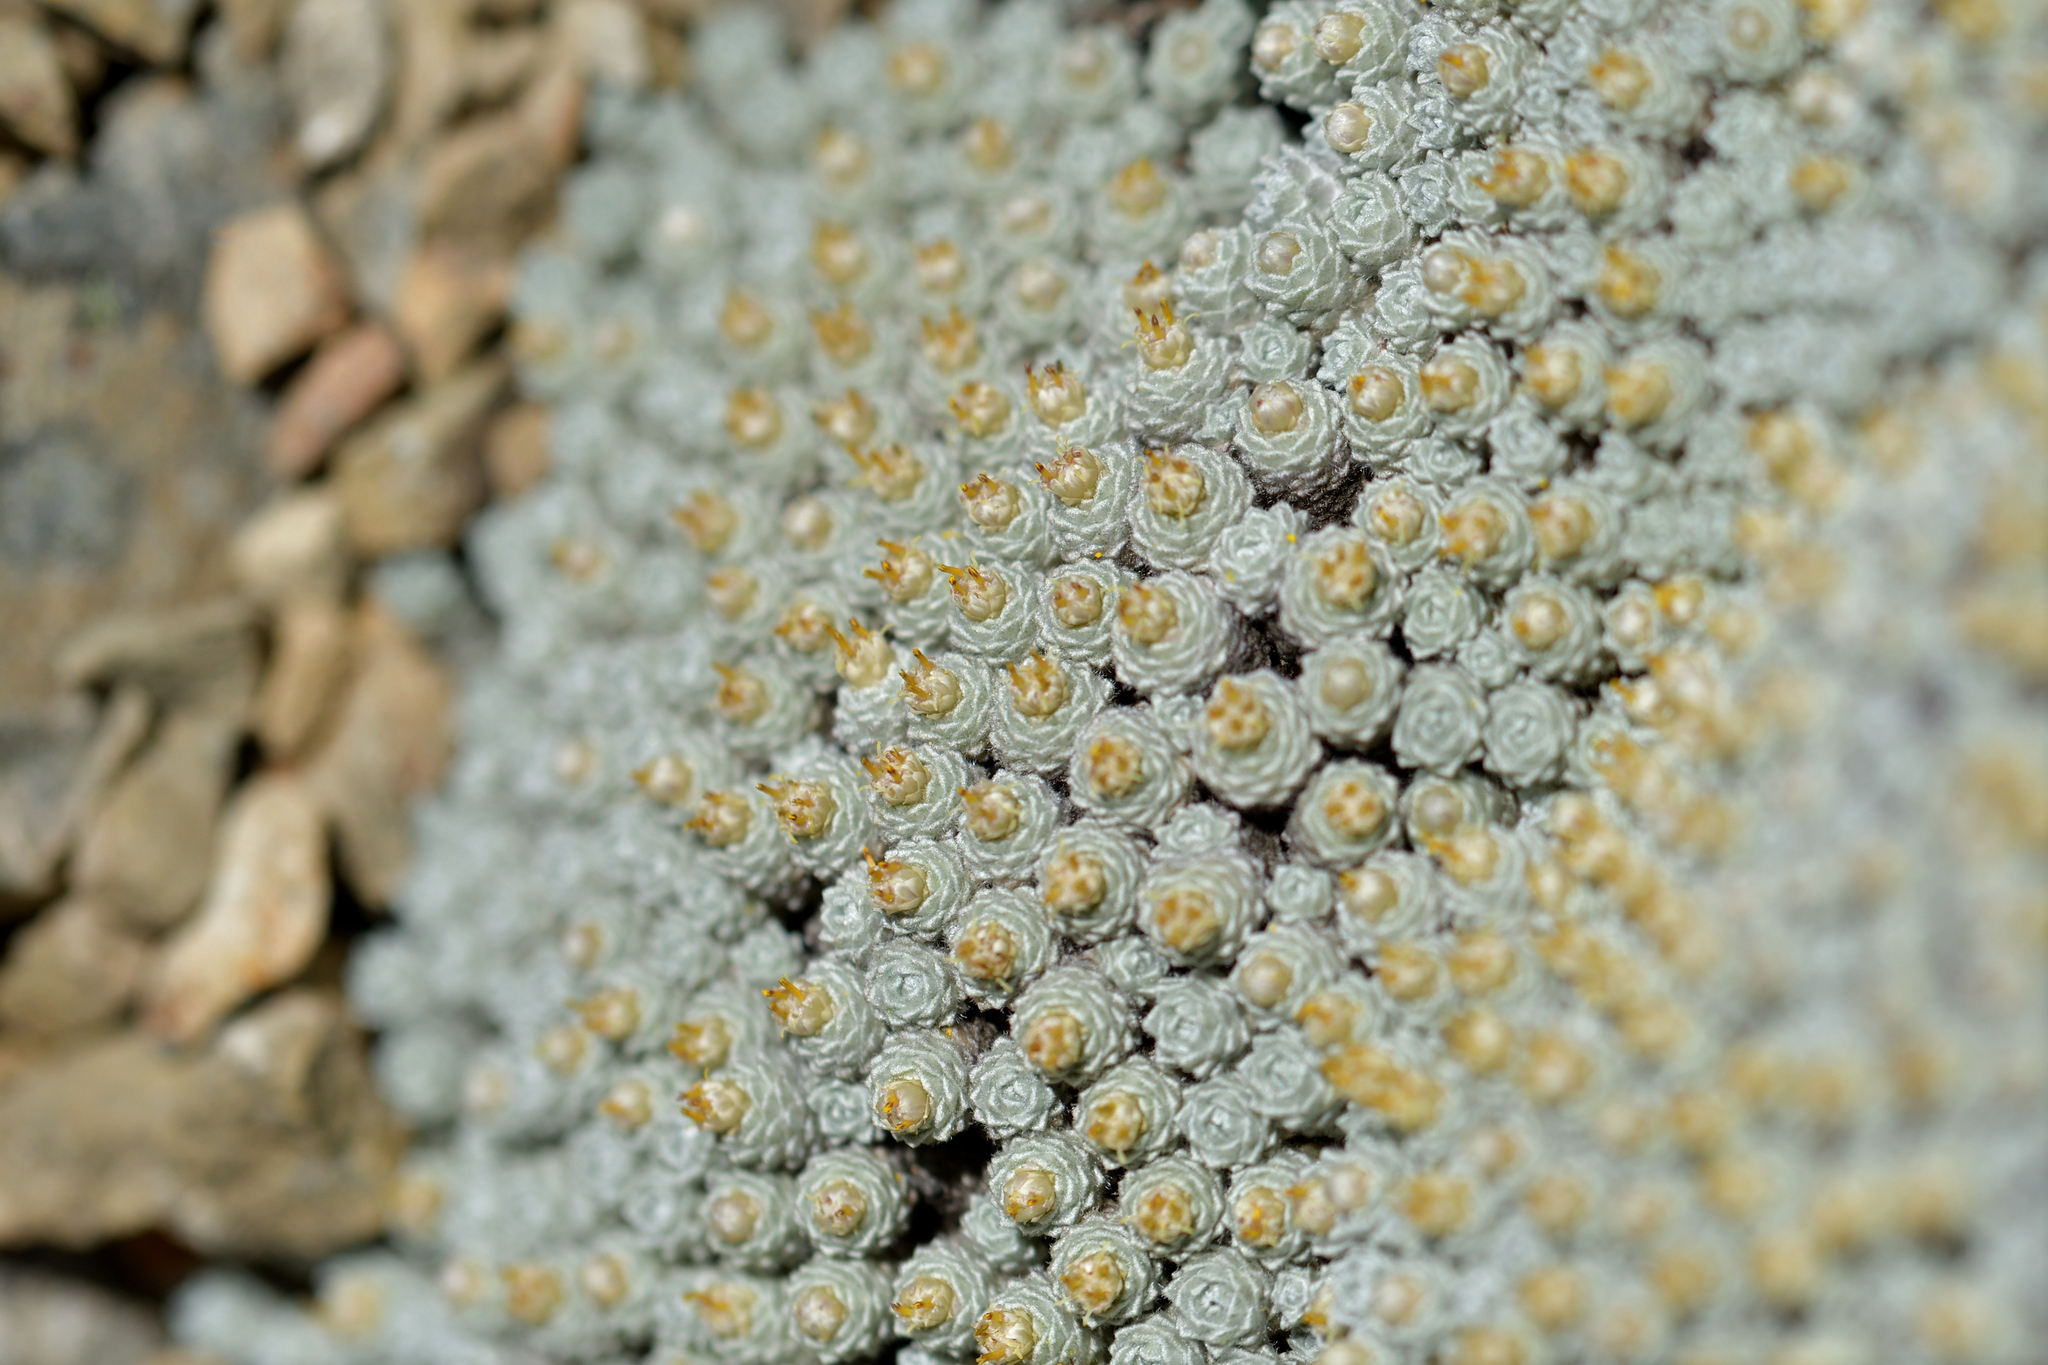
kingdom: Plantae
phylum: Tracheophyta
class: Magnoliopsida
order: Asterales
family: Asteraceae
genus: Raoulia
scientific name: Raoulia bryoides
